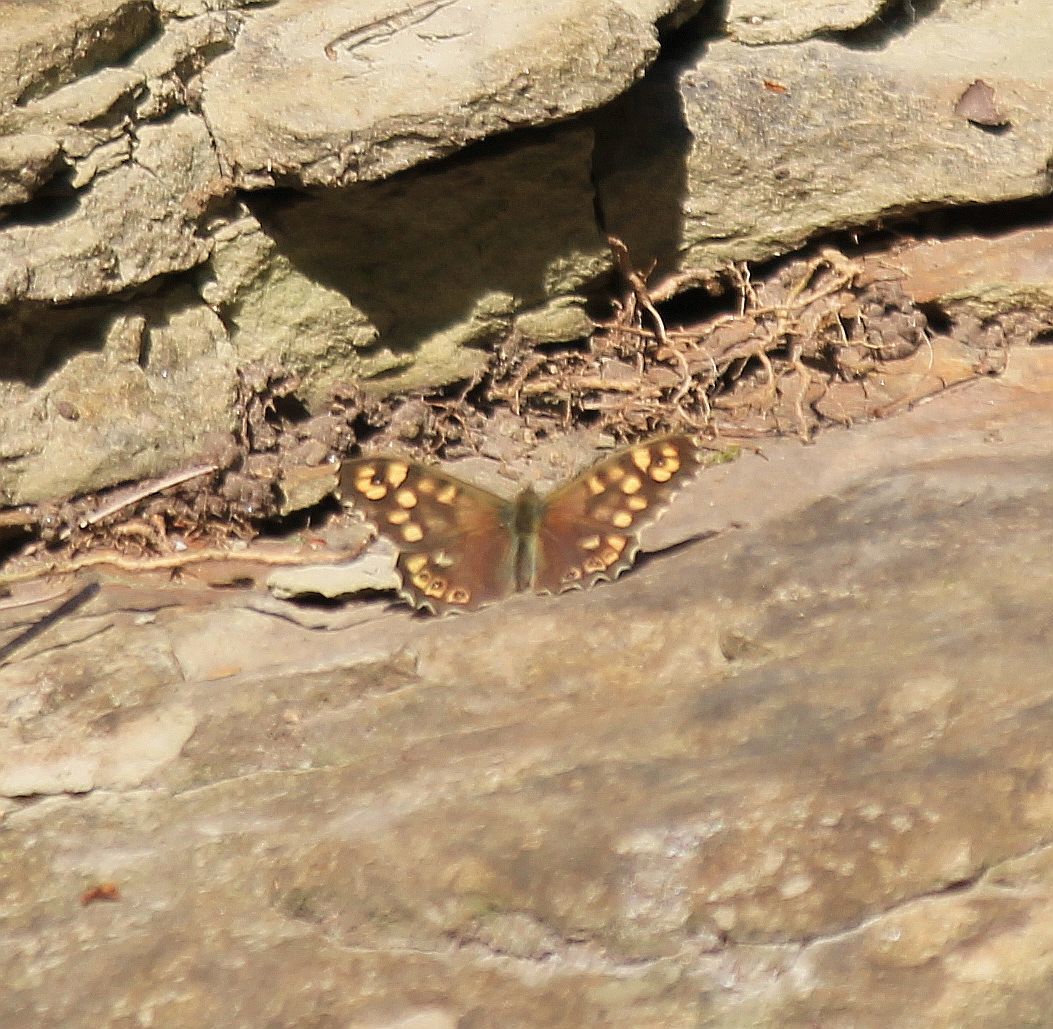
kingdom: Animalia
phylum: Arthropoda
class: Insecta
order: Lepidoptera
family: Nymphalidae
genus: Pararge
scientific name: Pararge aegeria
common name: Speckled wood
